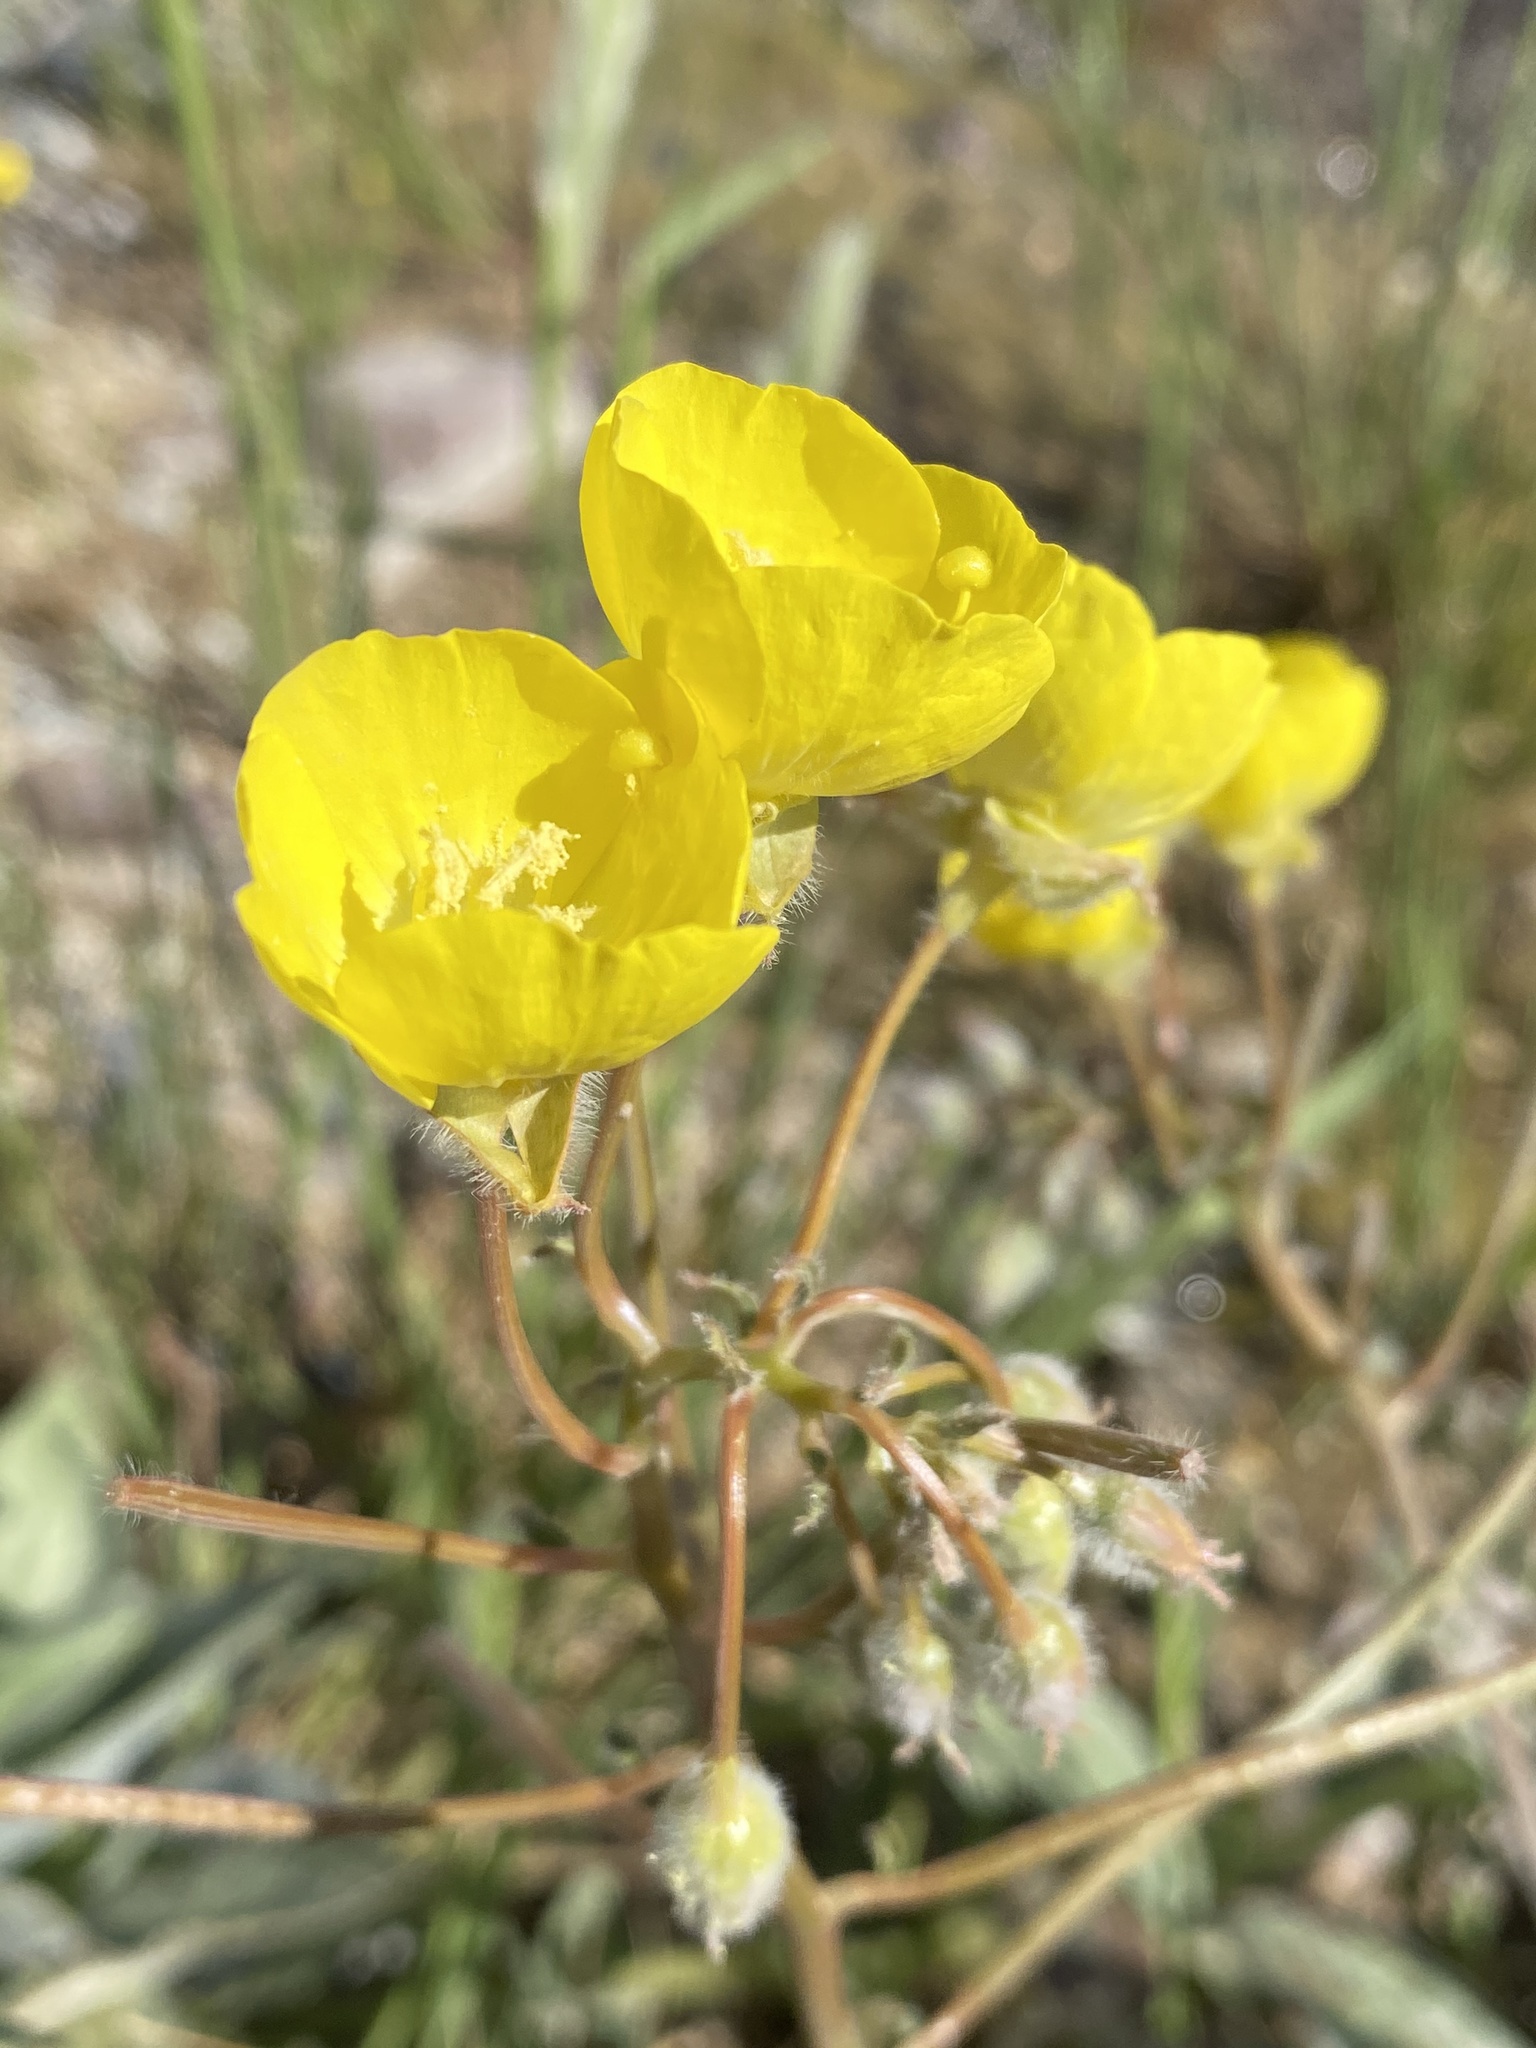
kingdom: Plantae
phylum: Tracheophyta
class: Magnoliopsida
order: Myrtales
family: Onagraceae
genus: Chylismia
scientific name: Chylismia brevipes
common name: Yellow cups
